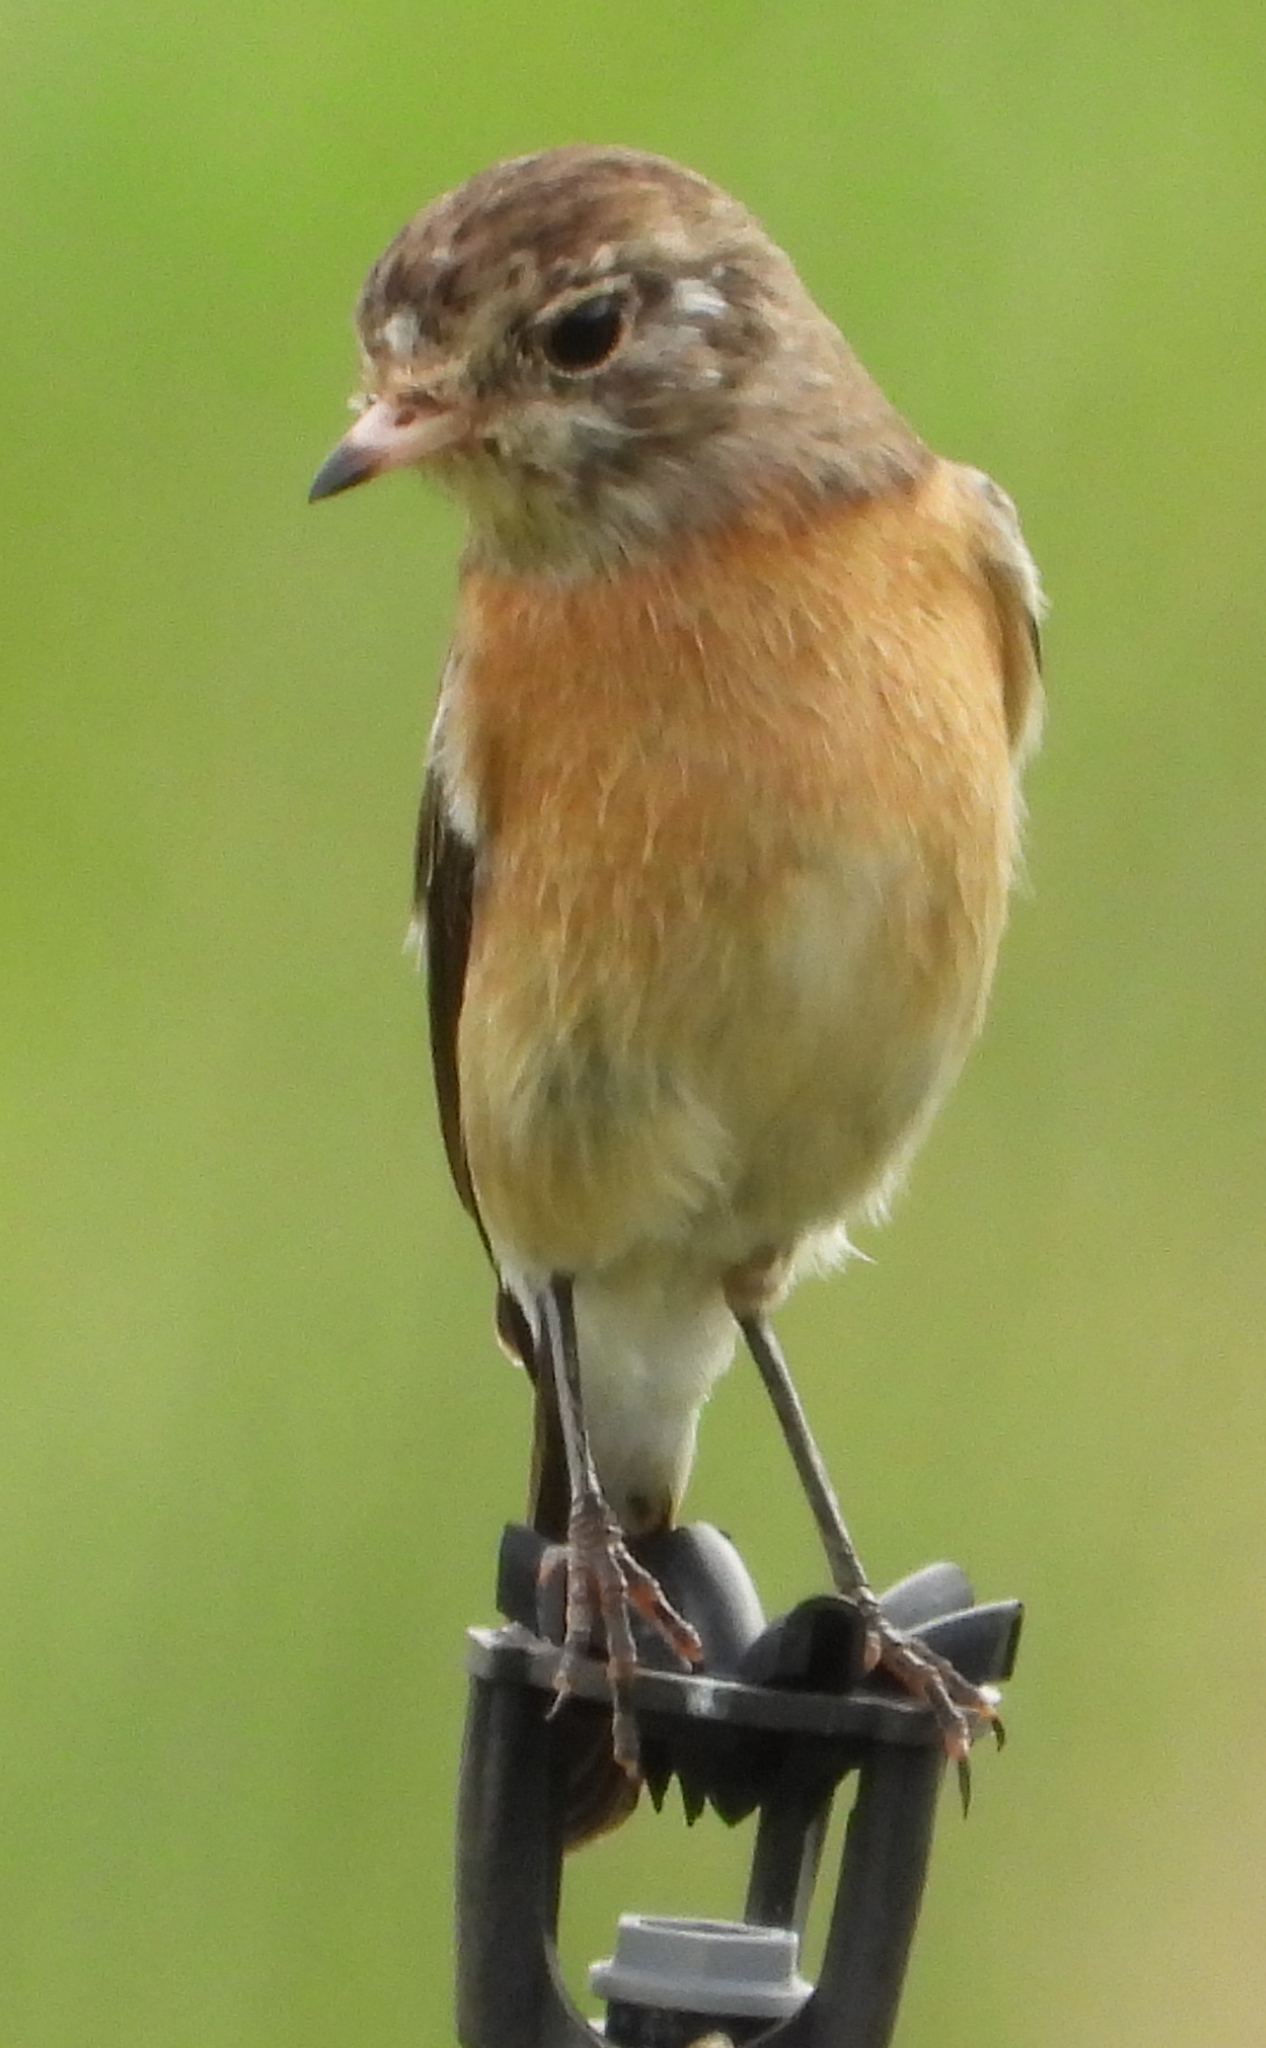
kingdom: Animalia
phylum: Chordata
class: Aves
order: Passeriformes
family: Muscicapidae
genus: Saxicola
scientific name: Saxicola torquatus
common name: African stonechat
